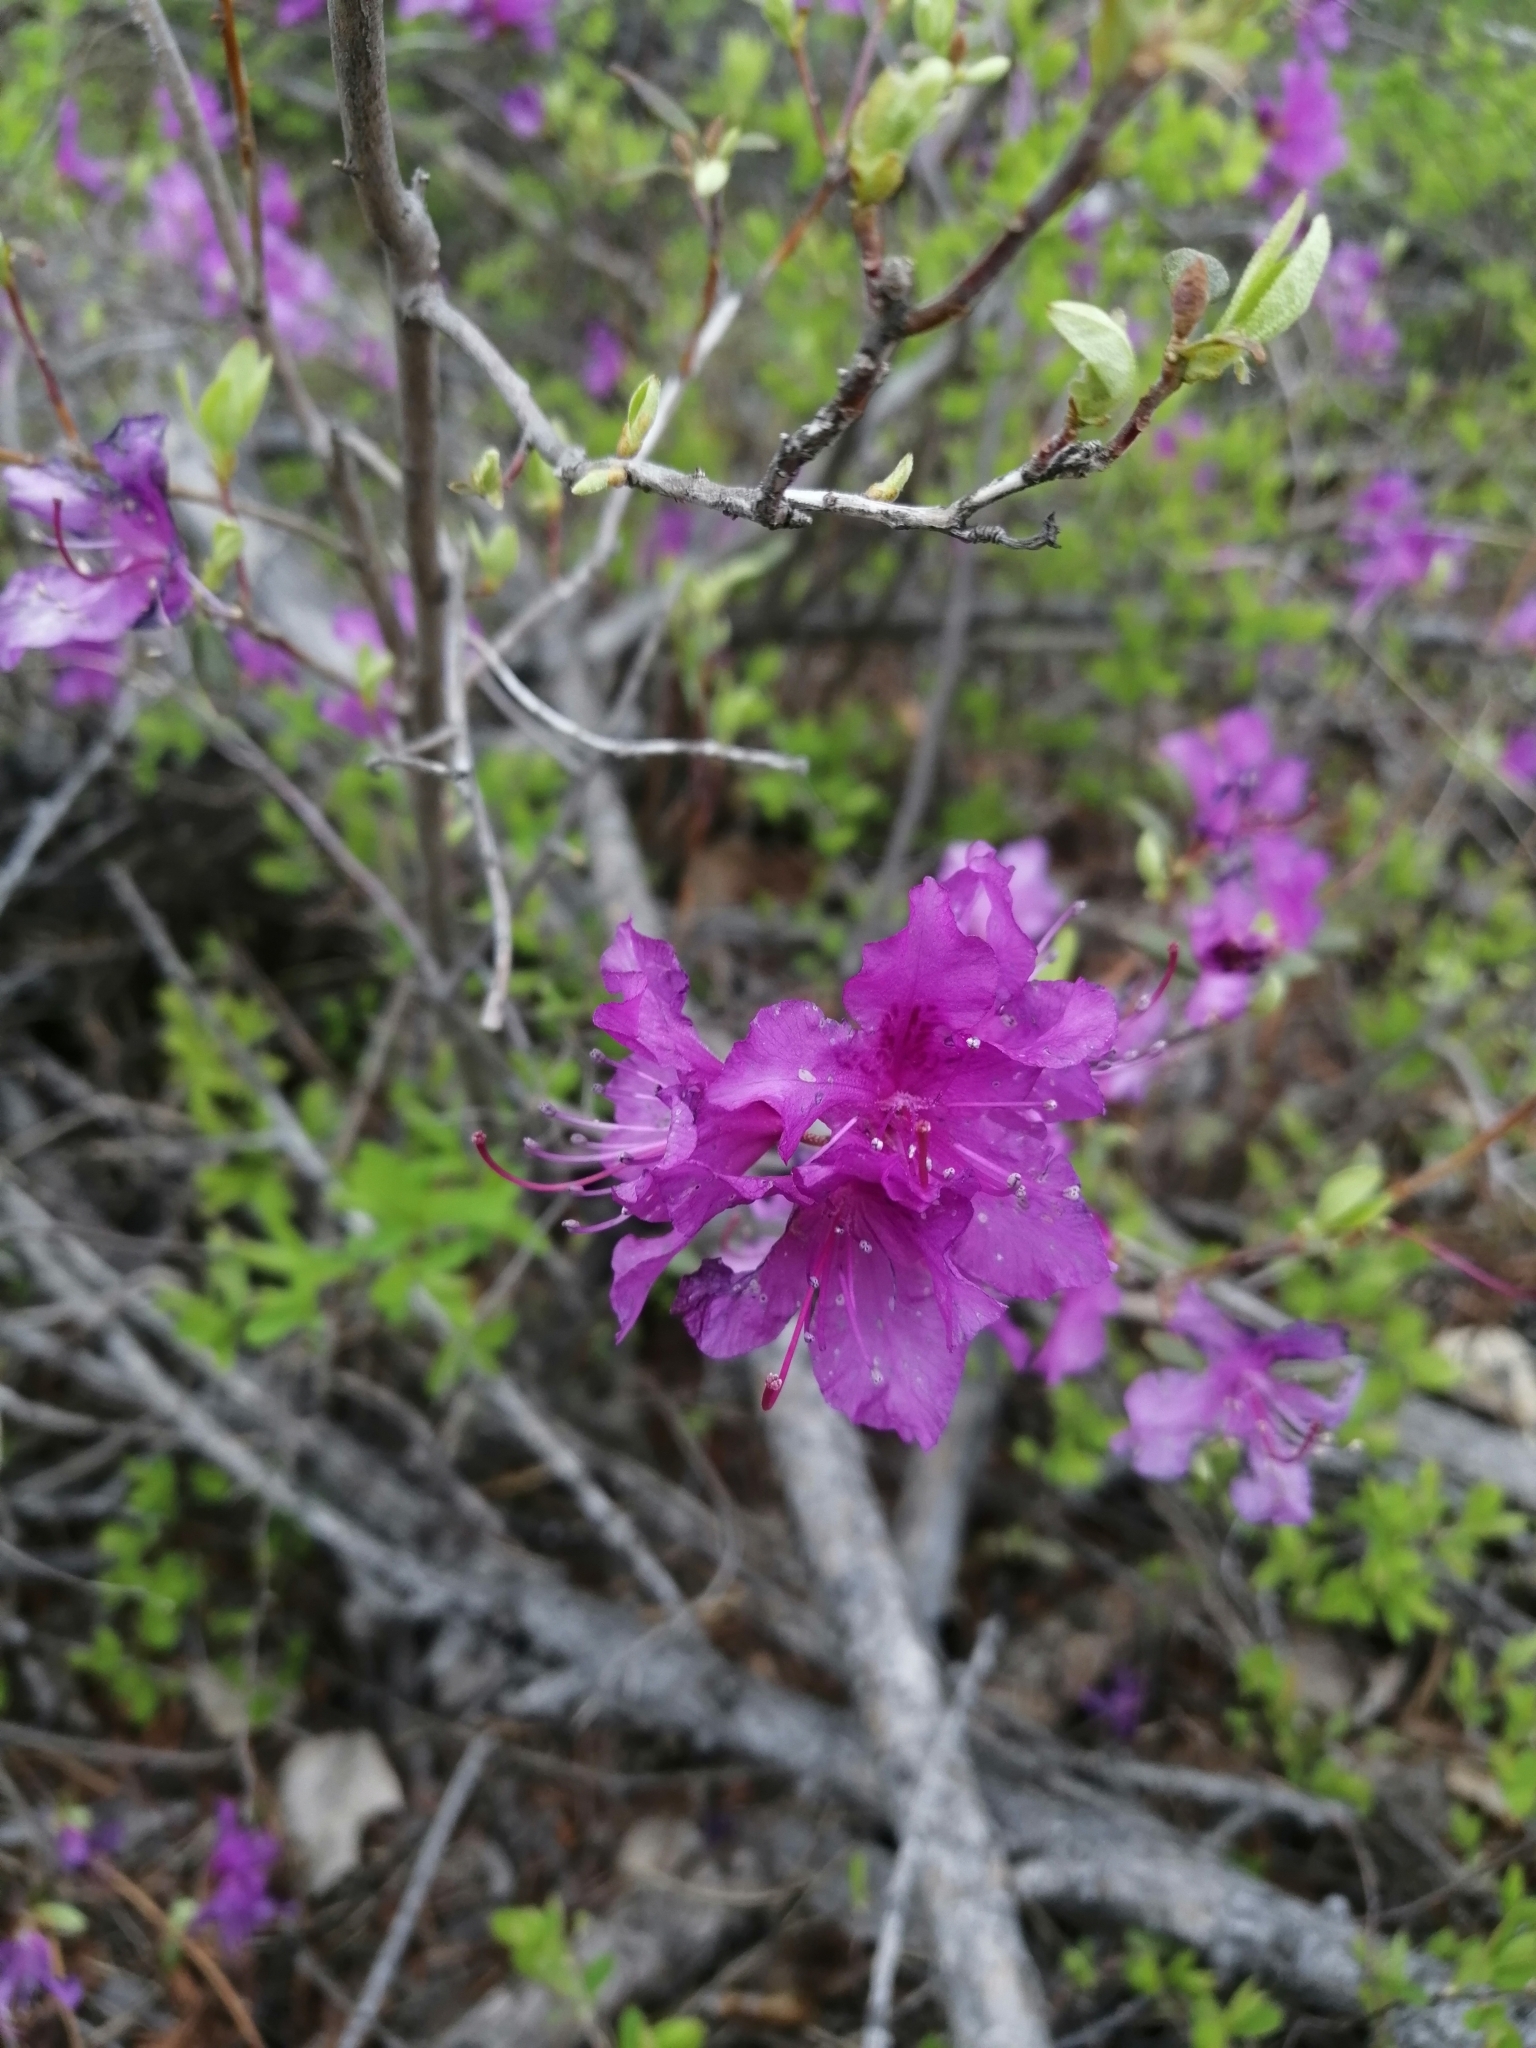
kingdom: Plantae
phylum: Tracheophyta
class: Magnoliopsida
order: Ericales
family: Ericaceae
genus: Rhododendron
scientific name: Rhododendron dauricum
